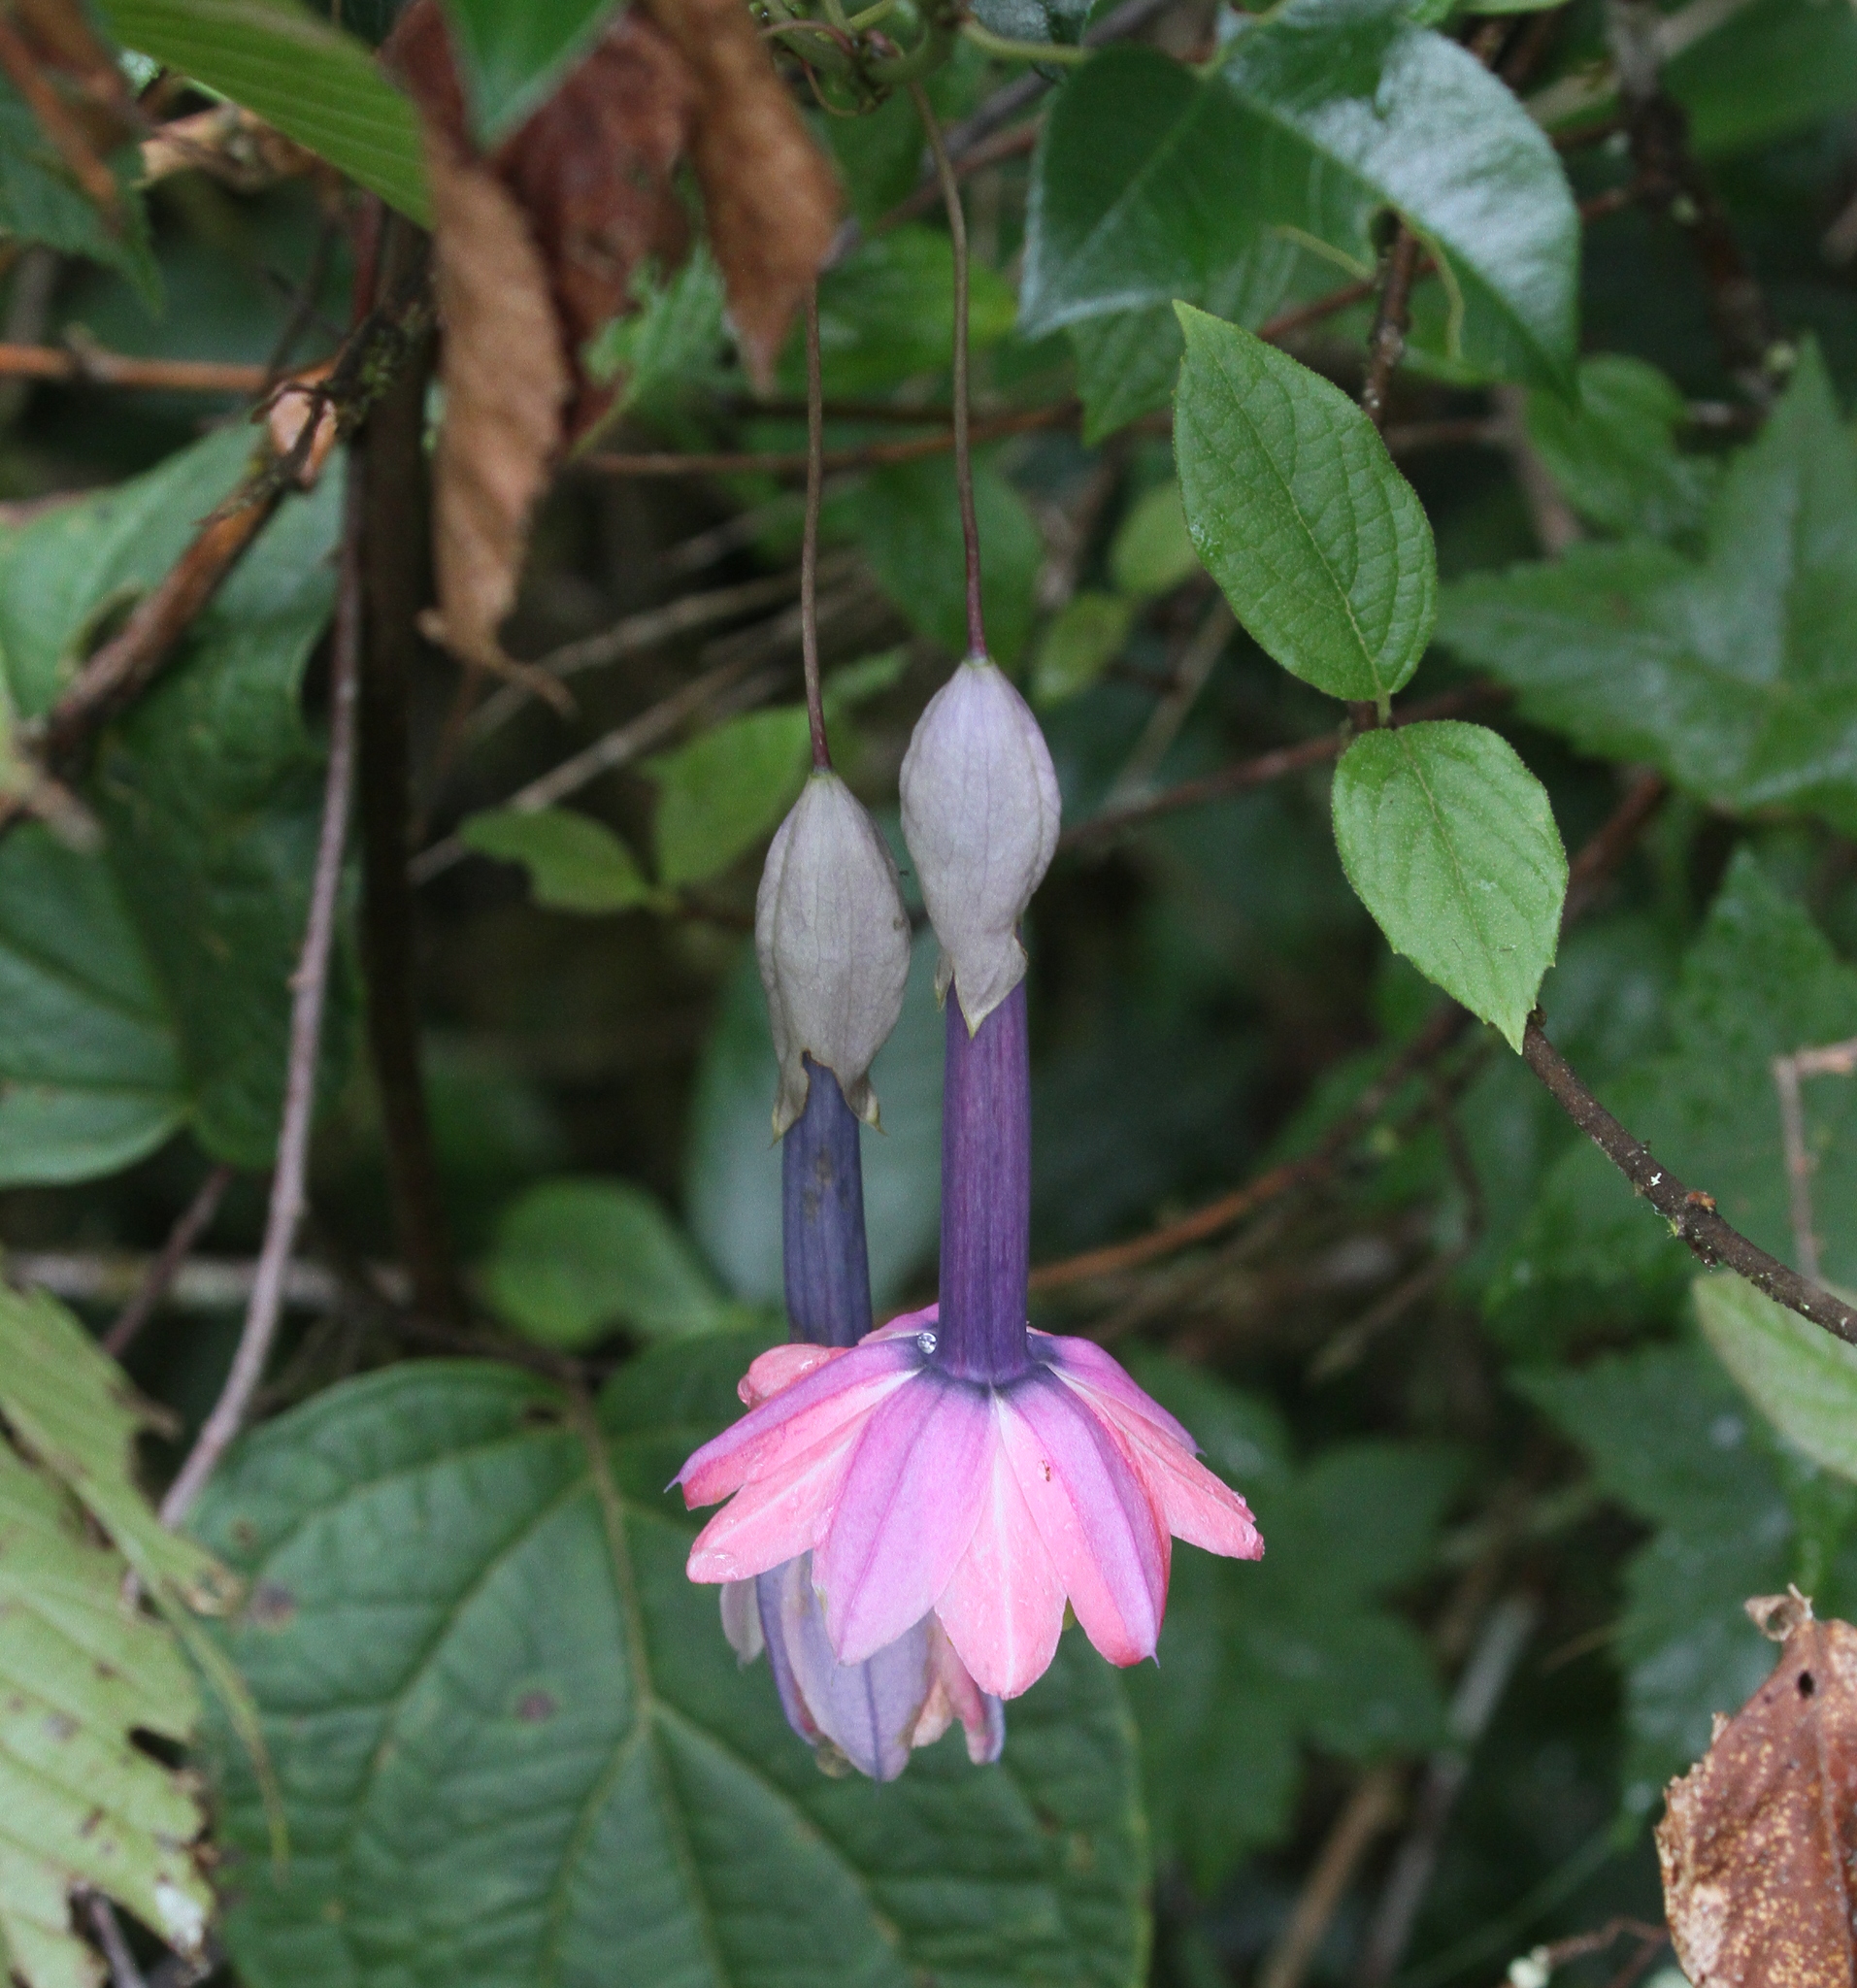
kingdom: Plantae
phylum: Tracheophyta
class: Magnoliopsida
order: Malpighiales
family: Passifloraceae
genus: Passiflora
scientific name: Passiflora cumbalensis
